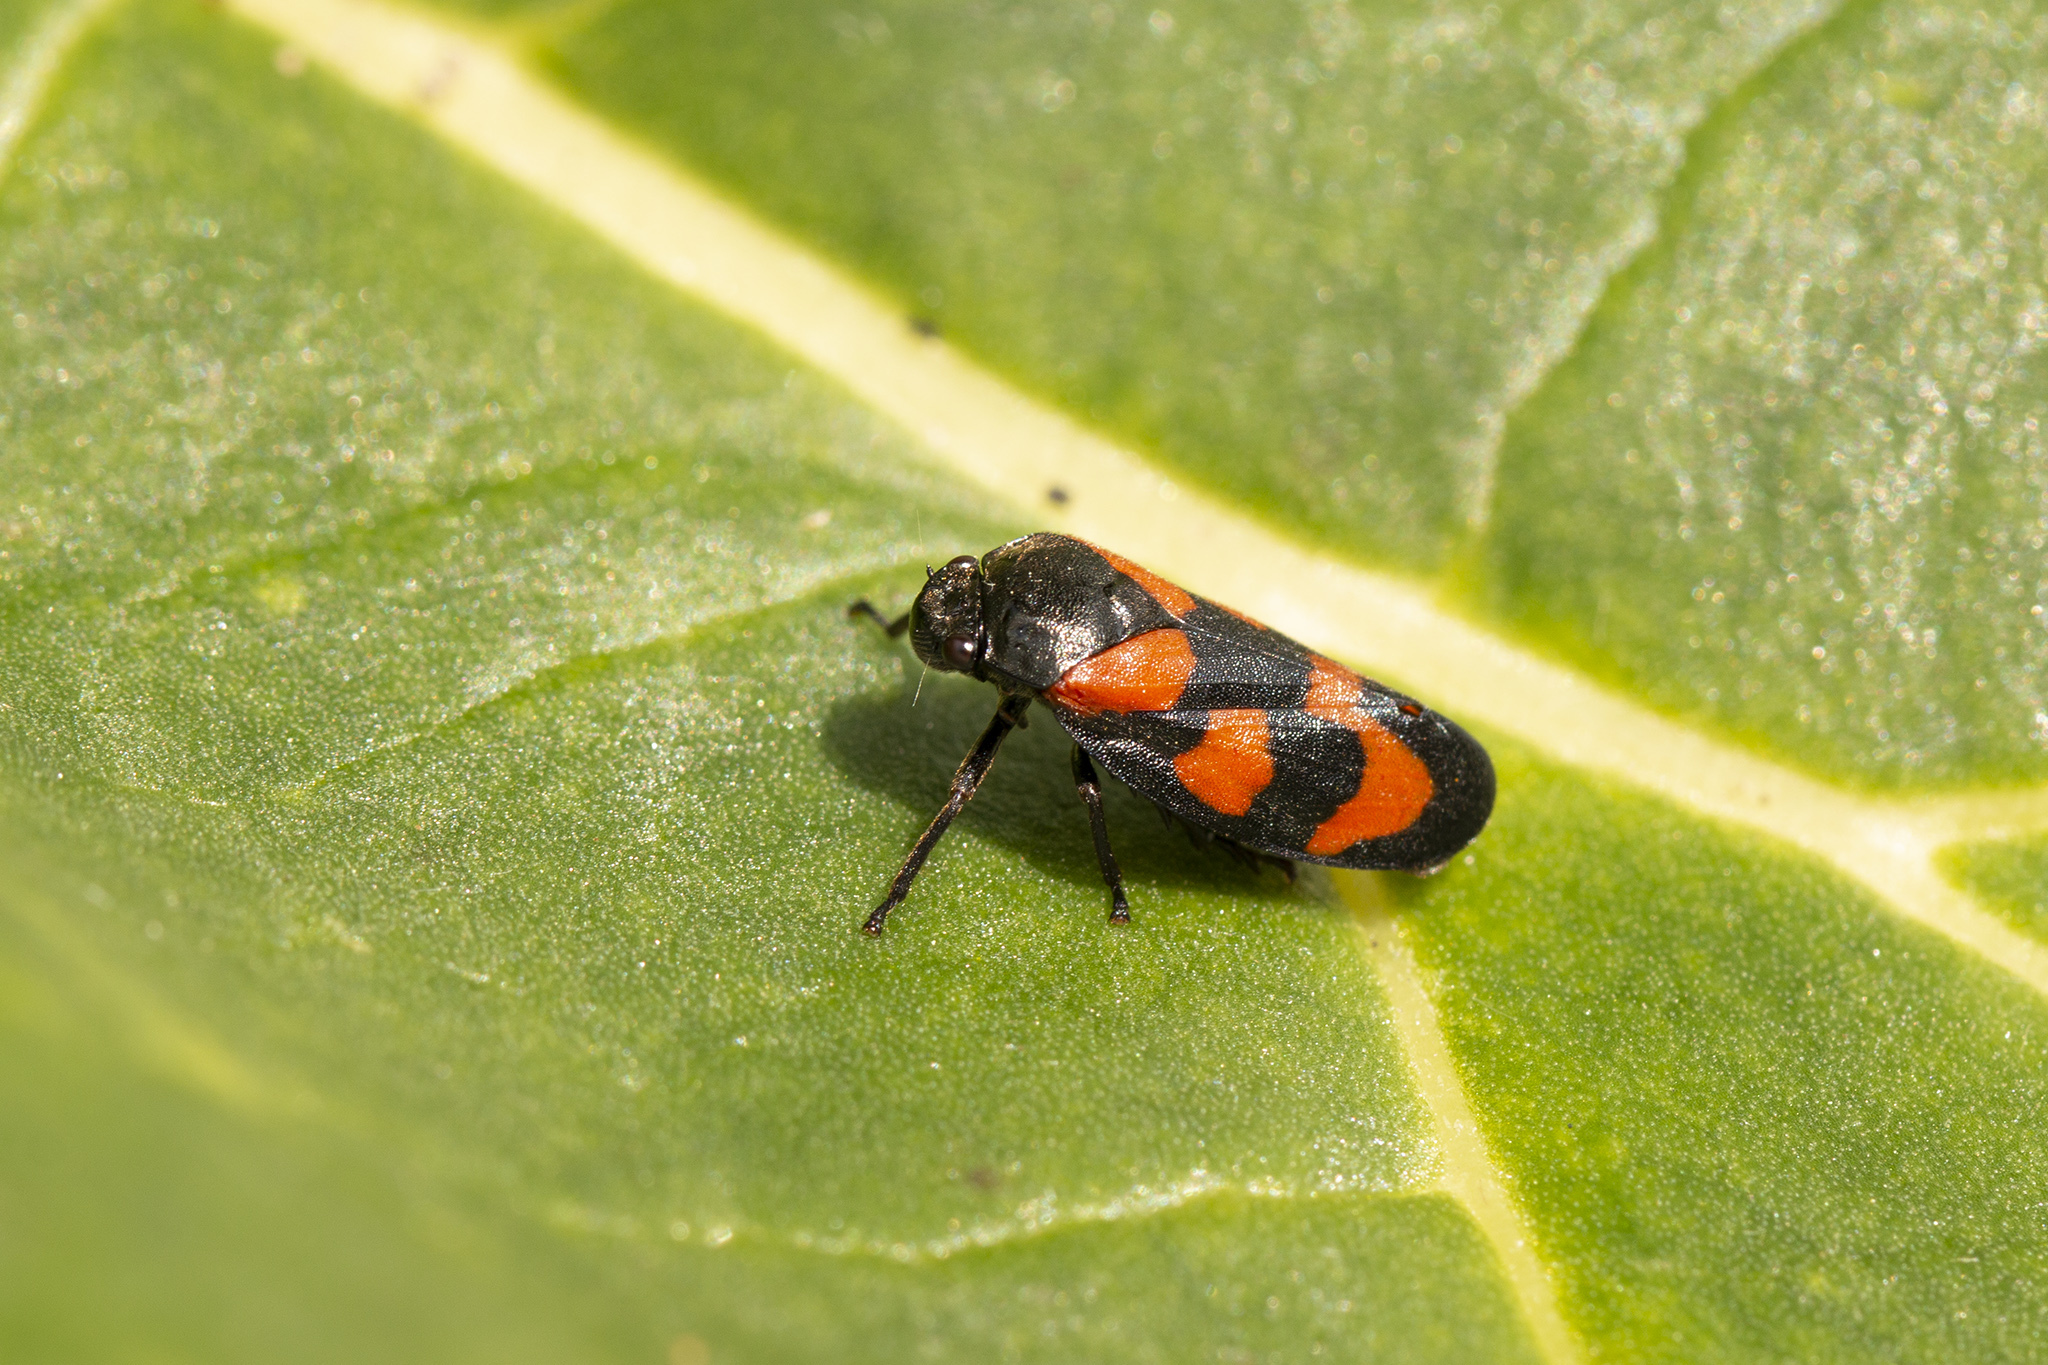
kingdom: Animalia
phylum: Arthropoda
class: Insecta
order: Hemiptera
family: Cercopidae
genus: Cercopis
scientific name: Cercopis vulnerata
